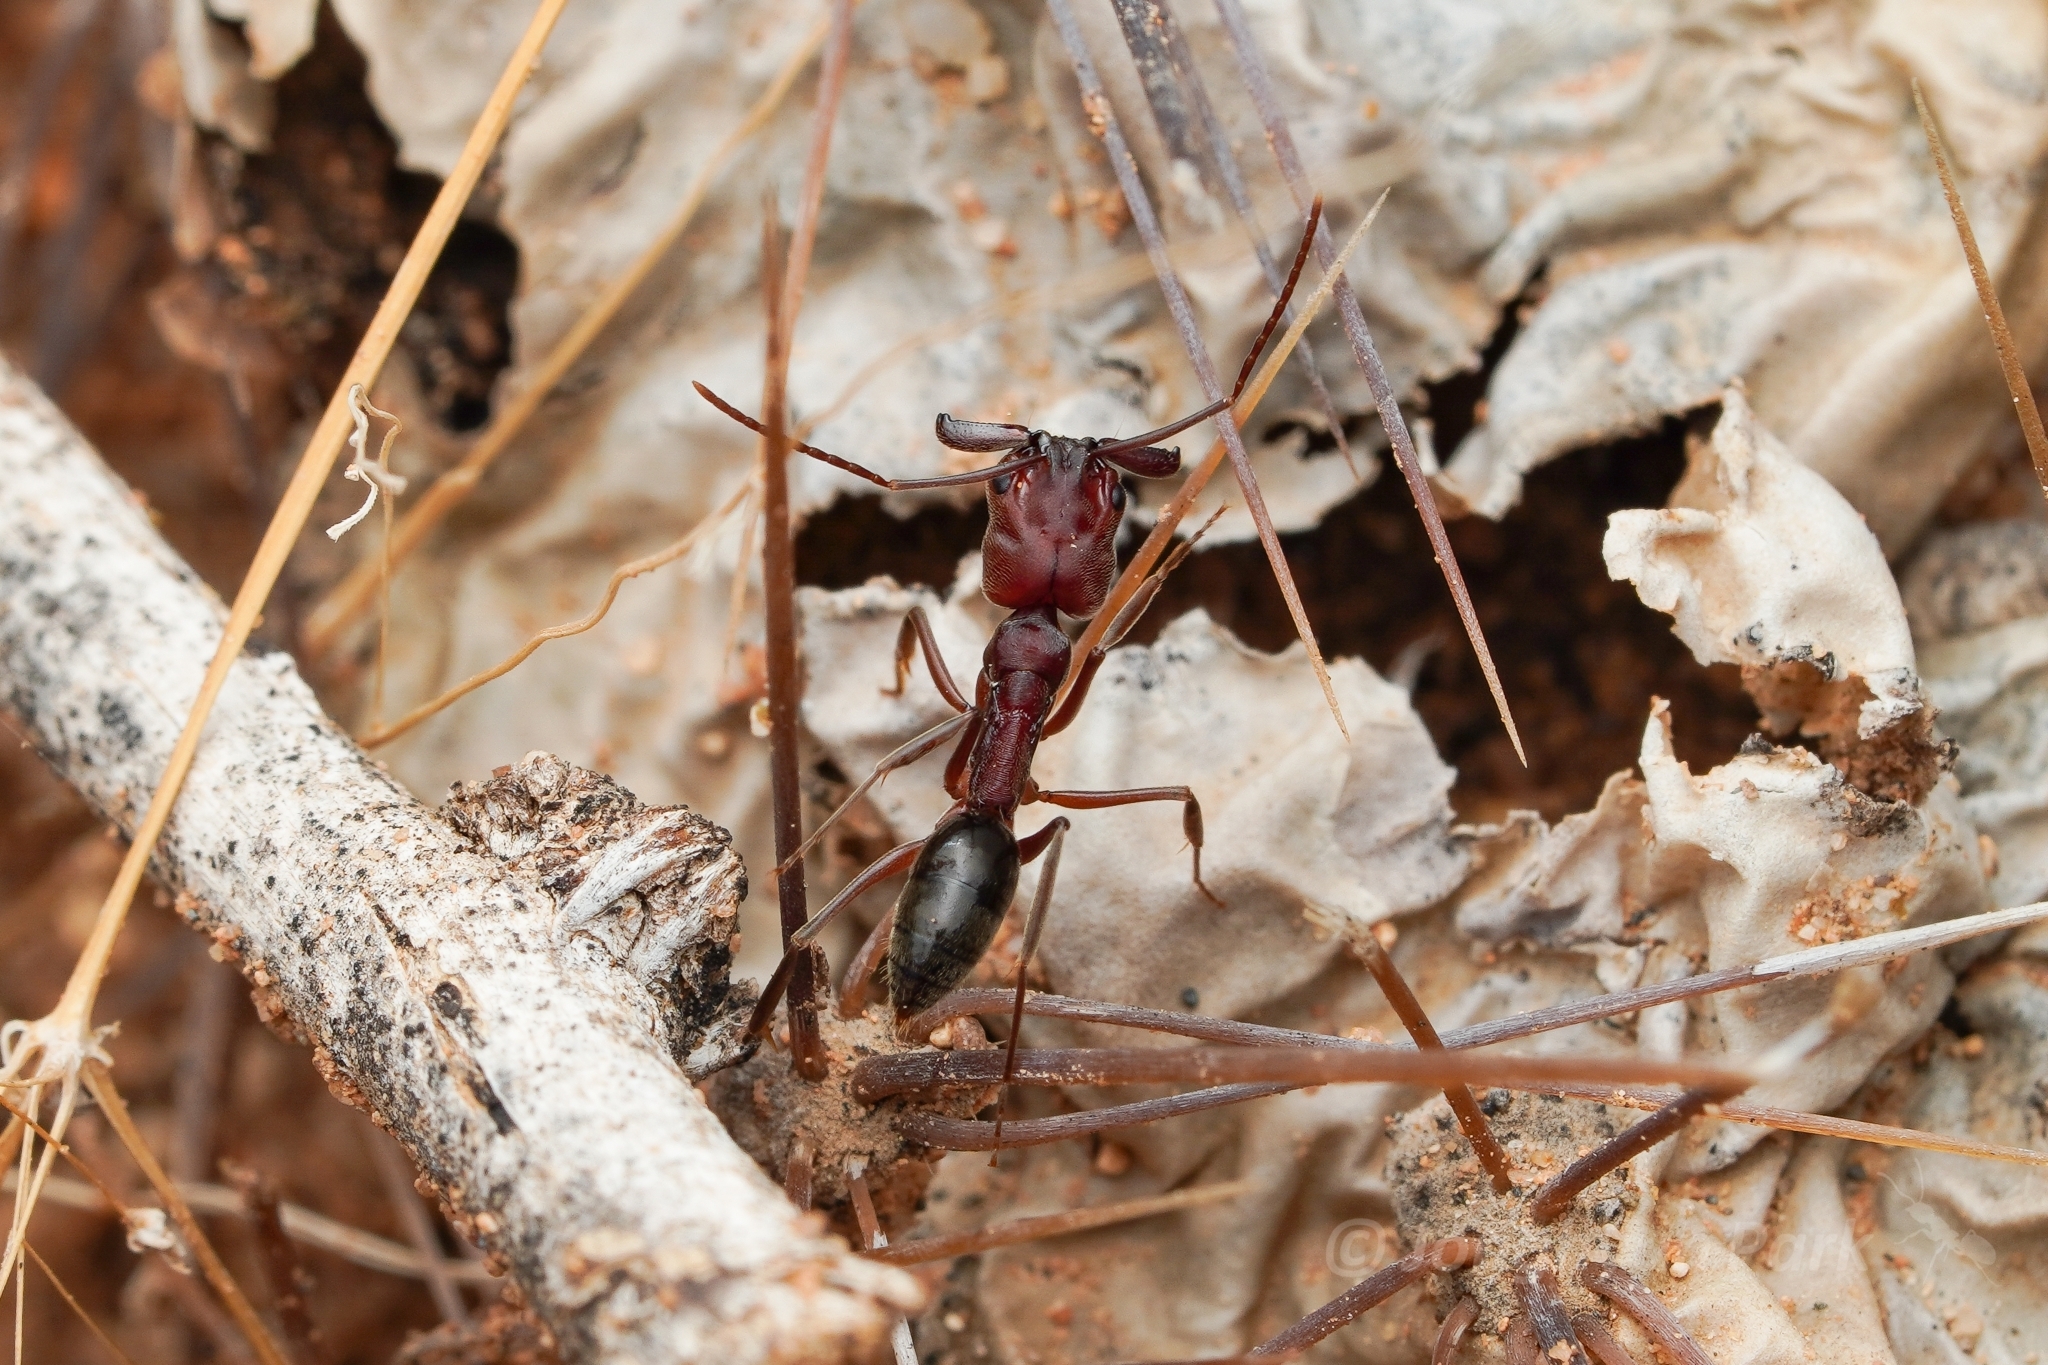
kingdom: Animalia
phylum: Arthropoda
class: Insecta
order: Hymenoptera
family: Formicidae
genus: Odontomachus
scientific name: Odontomachus
